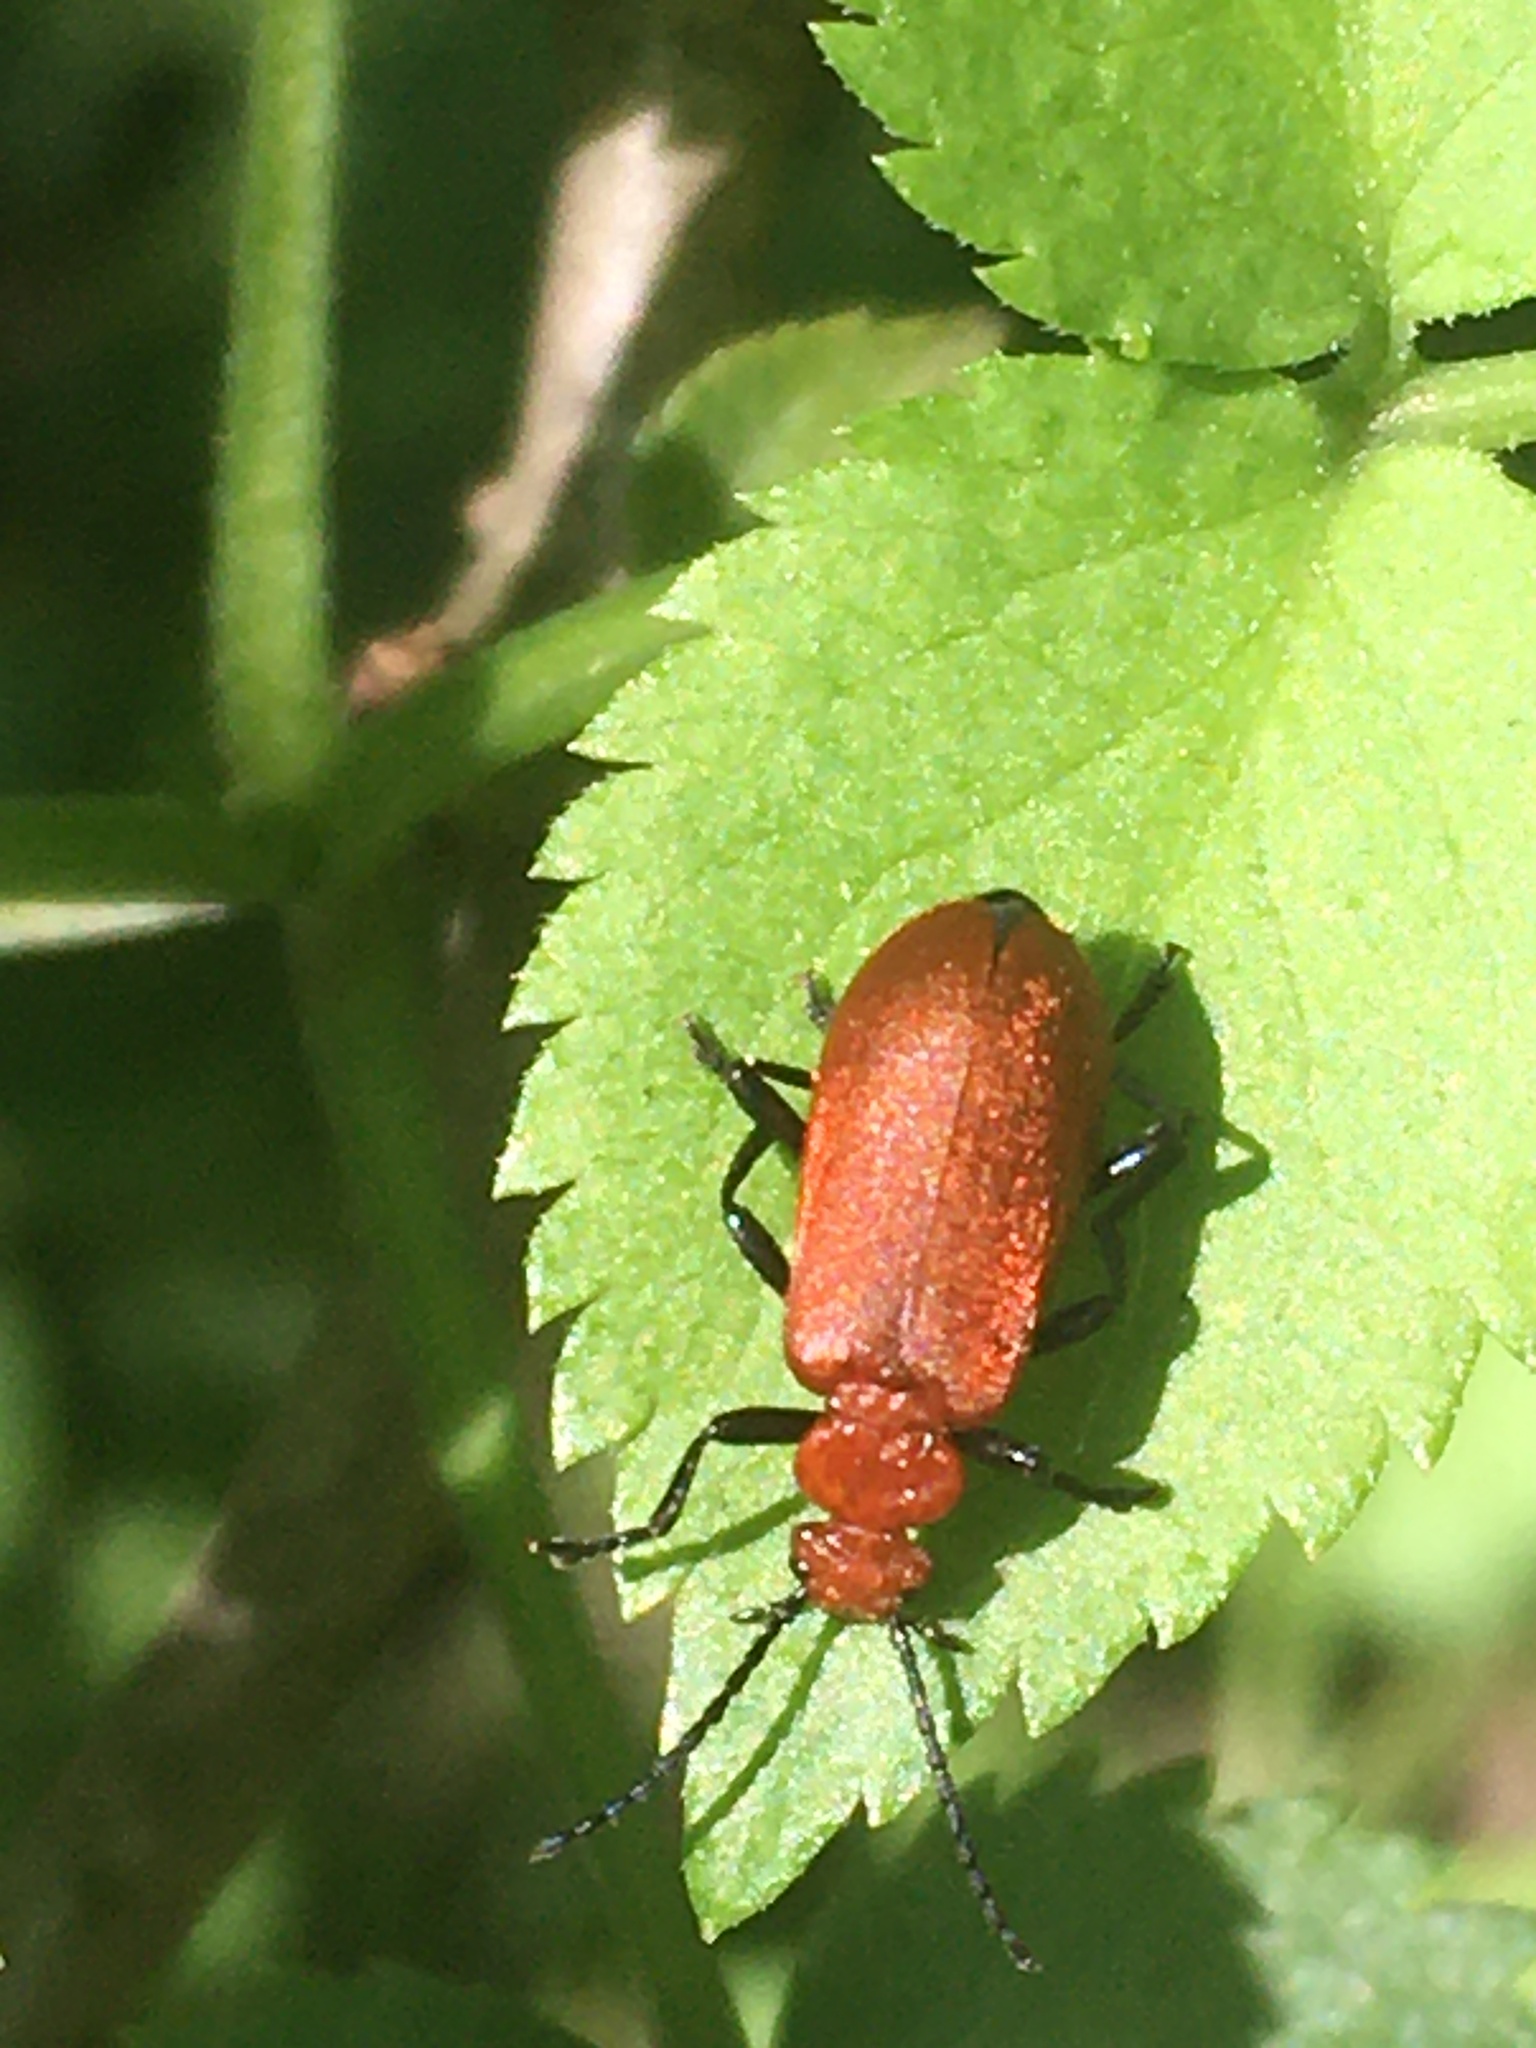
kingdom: Animalia
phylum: Arthropoda
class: Insecta
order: Coleoptera
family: Pyrochroidae
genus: Pyrochroa
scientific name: Pyrochroa serraticornis
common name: Red-headed cardinal beetle
